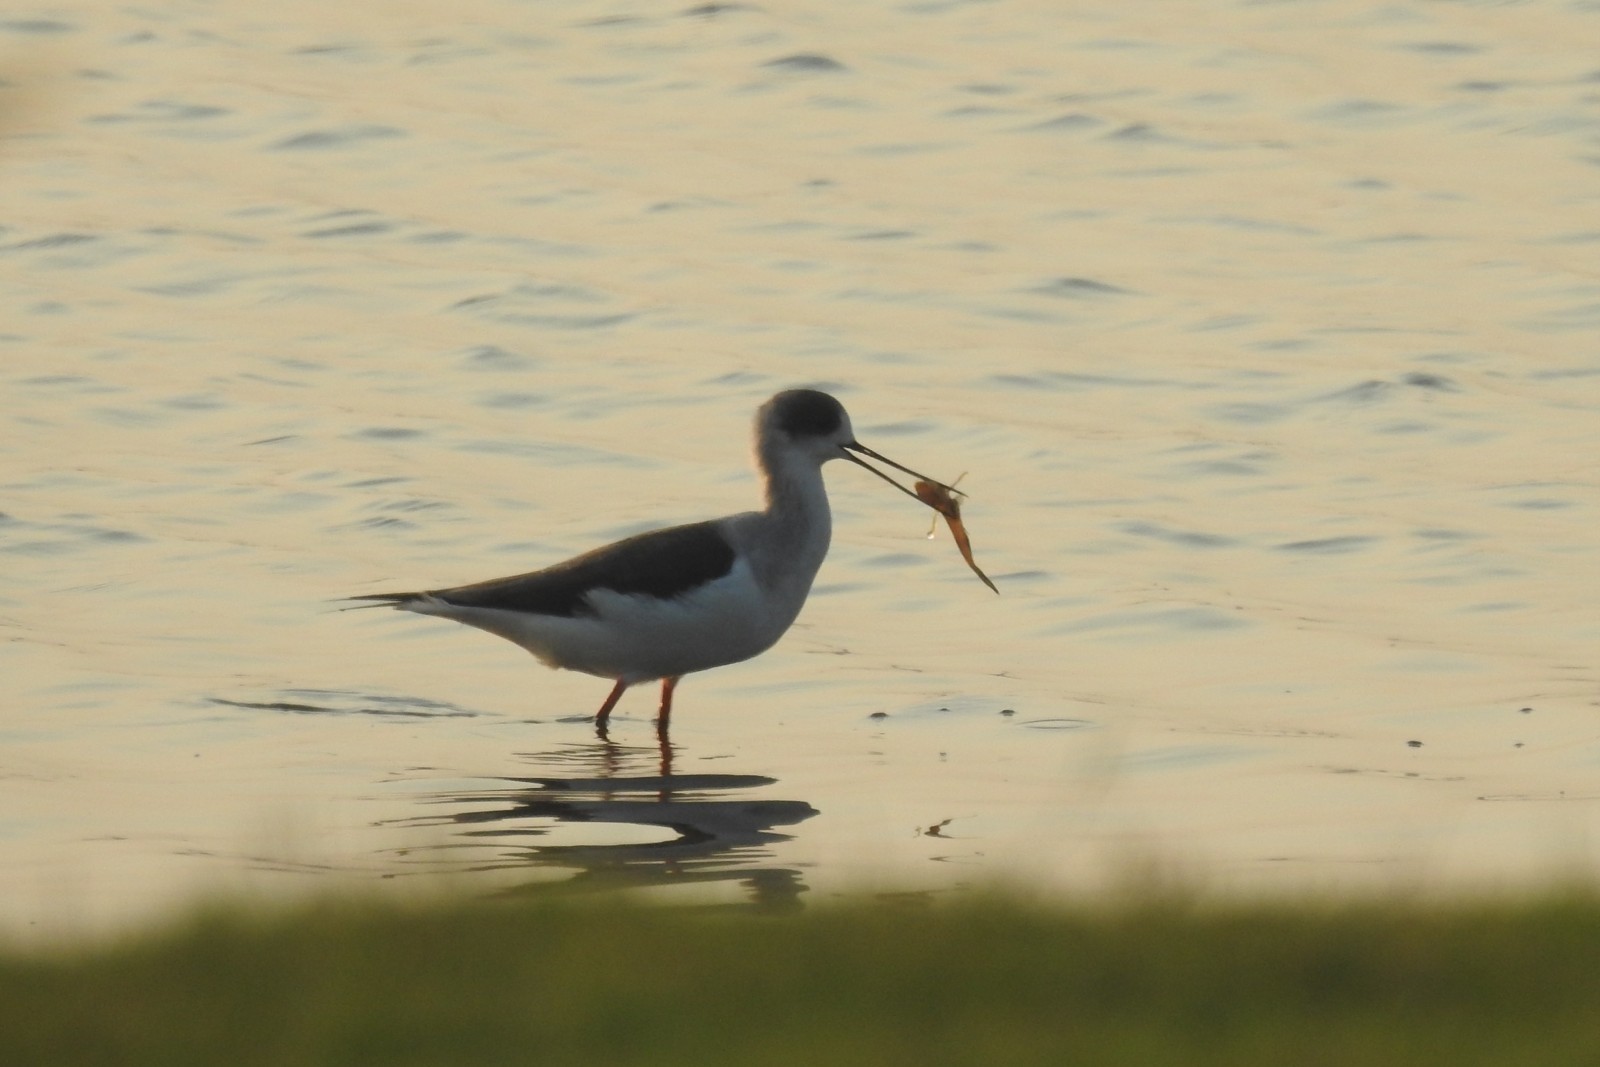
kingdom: Animalia
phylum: Chordata
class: Aves
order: Charadriiformes
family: Recurvirostridae
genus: Himantopus
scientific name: Himantopus himantopus
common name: Black-winged stilt
